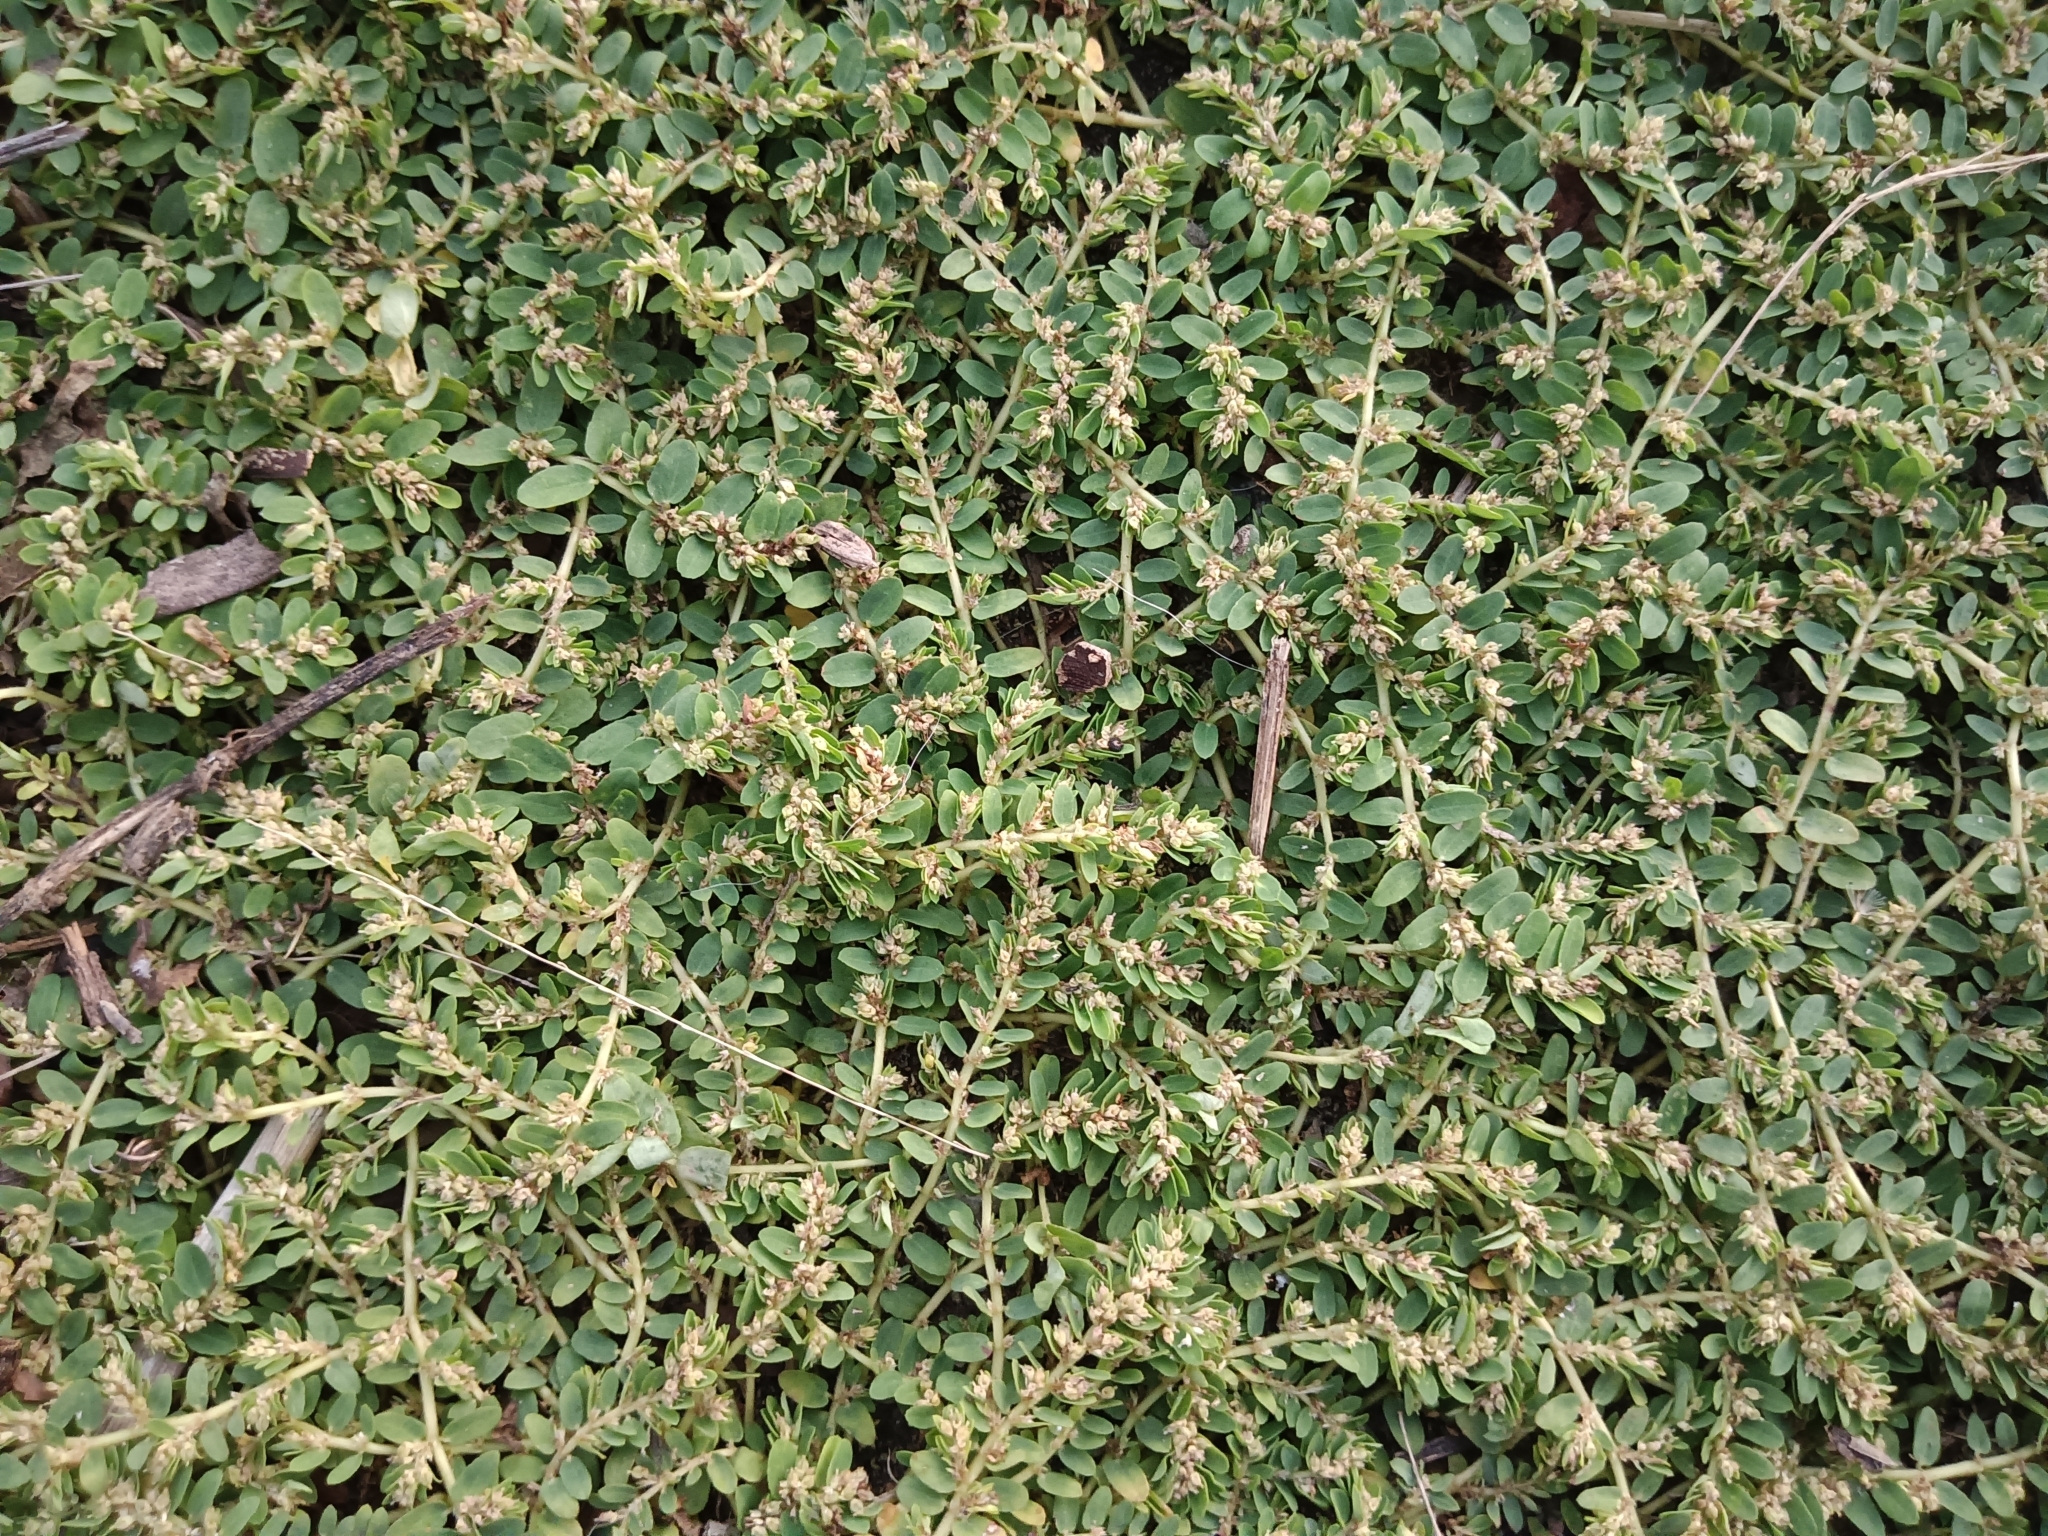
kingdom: Plantae
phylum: Tracheophyta
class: Magnoliopsida
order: Malpighiales
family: Euphorbiaceae
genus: Euphorbia
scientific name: Euphorbia thymifolia
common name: Gulf sandmat
